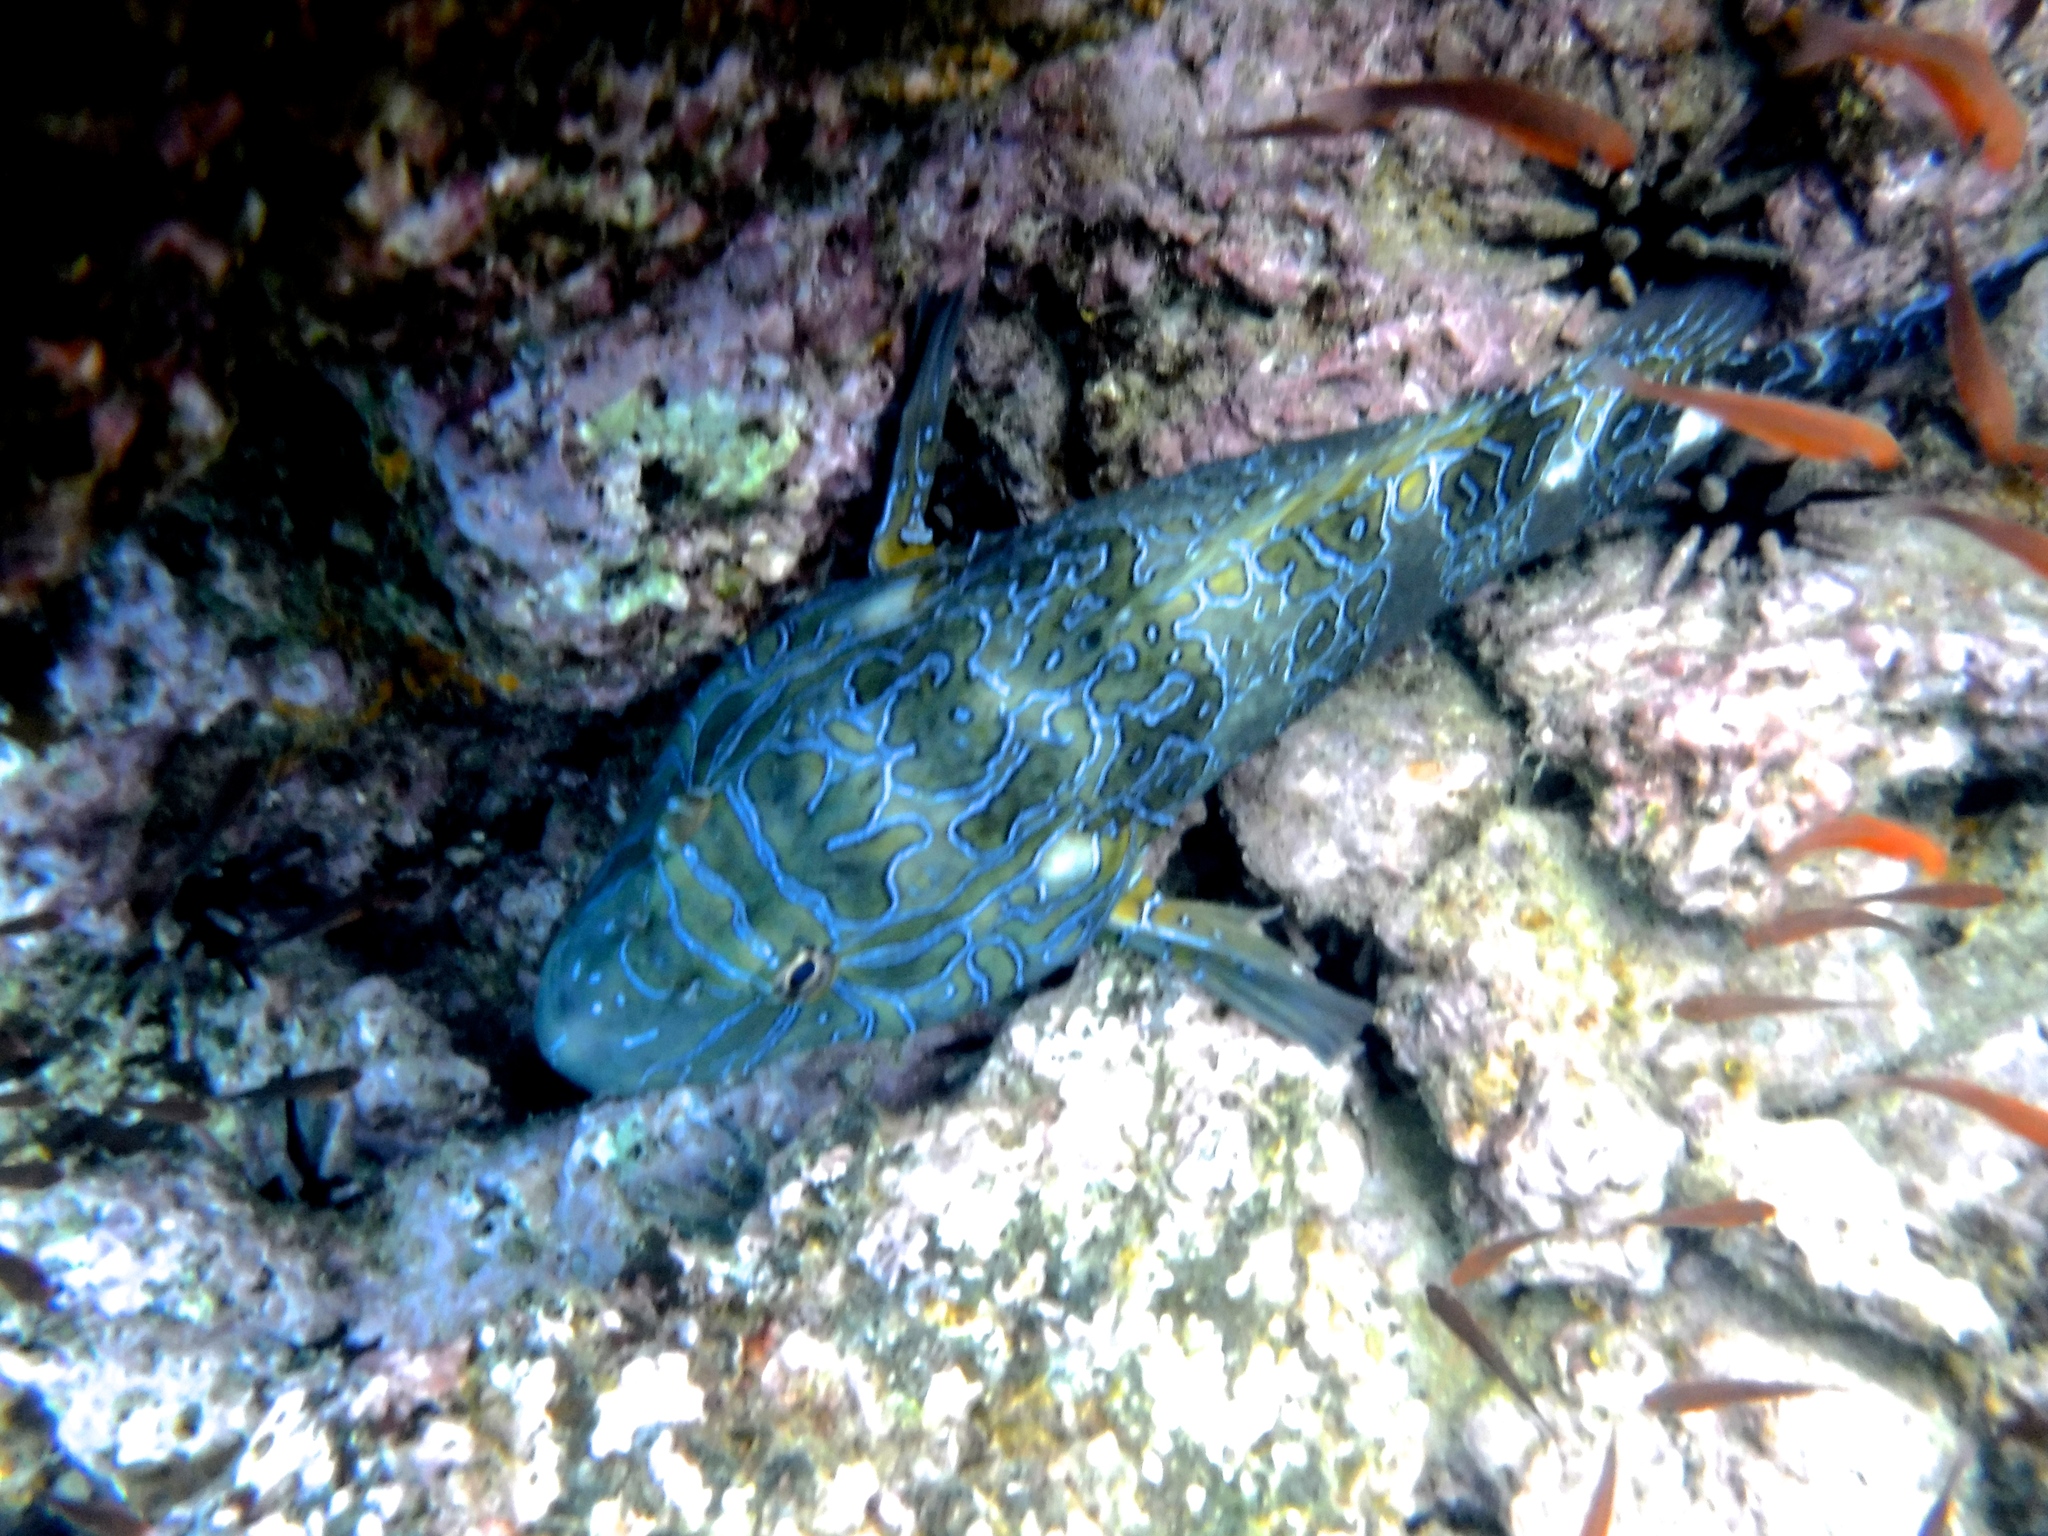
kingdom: Animalia
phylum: Chordata
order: Perciformes
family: Cirrhitidae
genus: Cirrhitus
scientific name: Cirrhitus rivulatus
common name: Giant hawkfish
